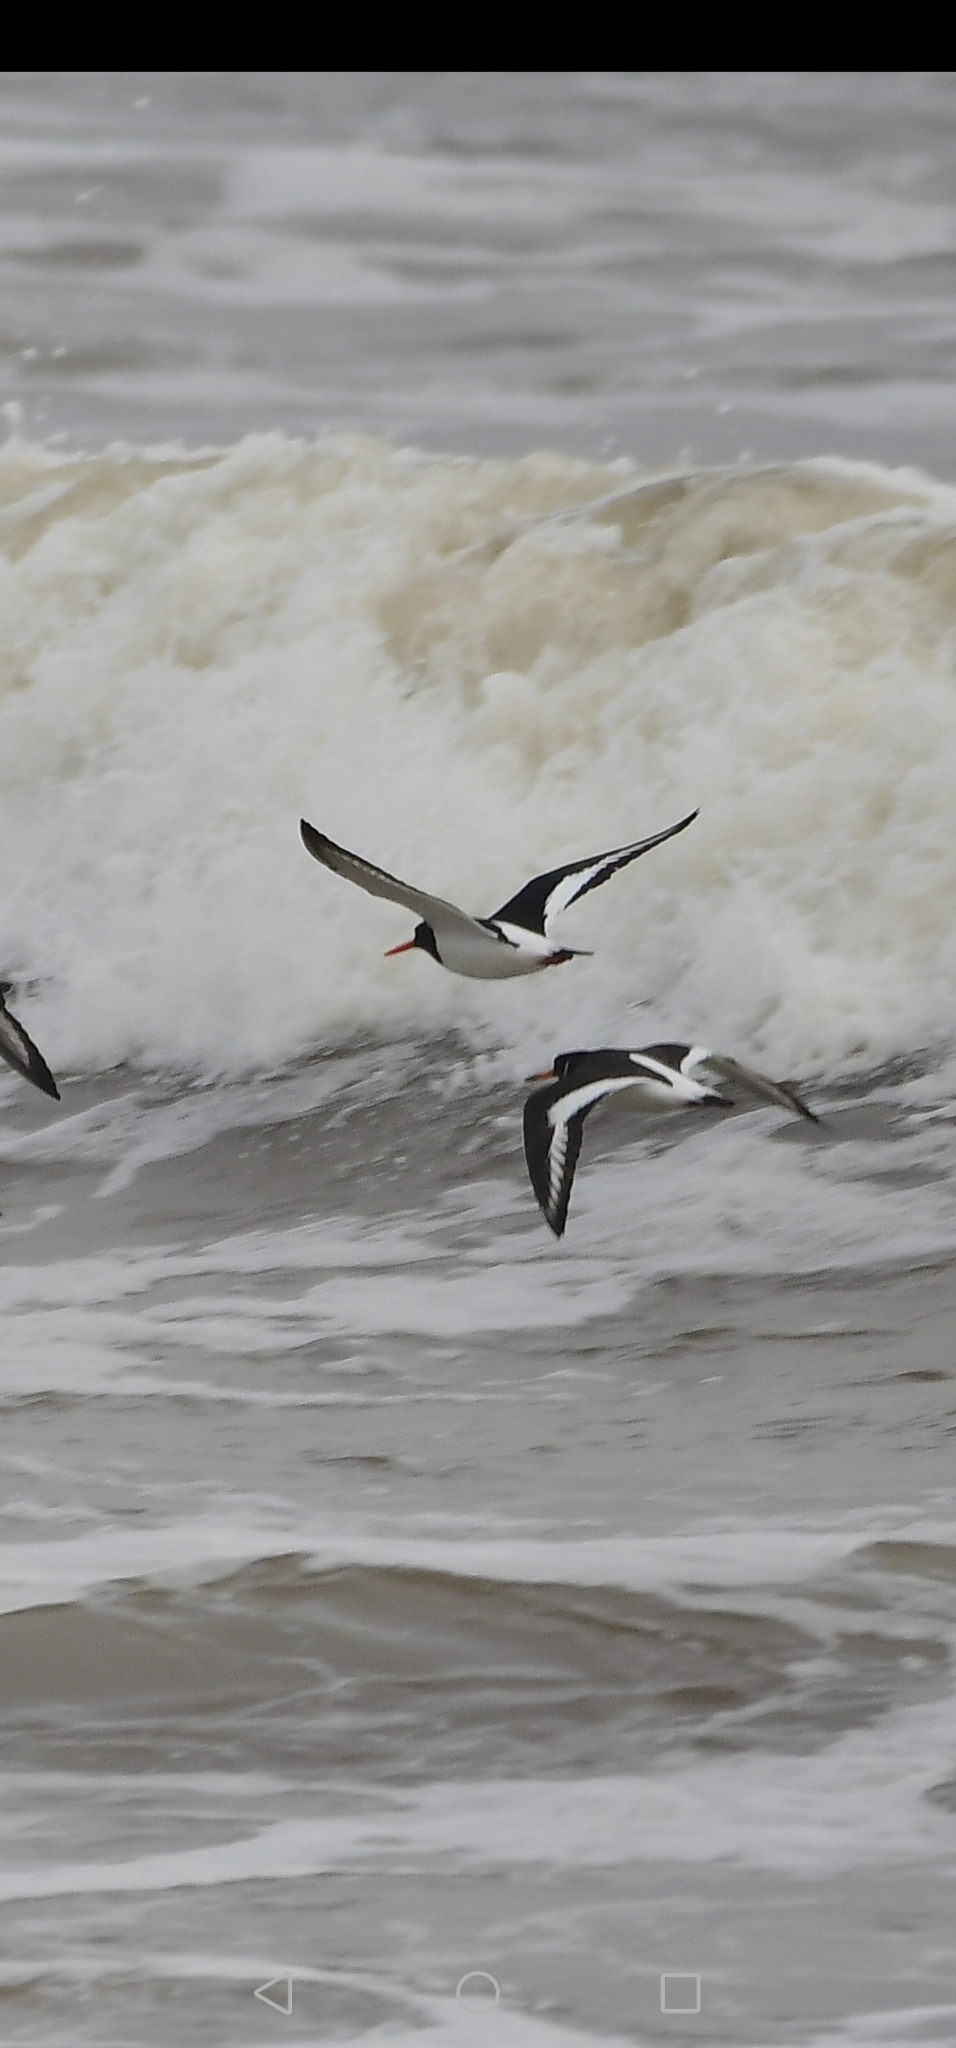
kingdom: Animalia
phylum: Chordata
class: Aves
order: Charadriiformes
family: Haematopodidae
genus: Haematopus
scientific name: Haematopus ostralegus
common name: Eurasian oystercatcher
